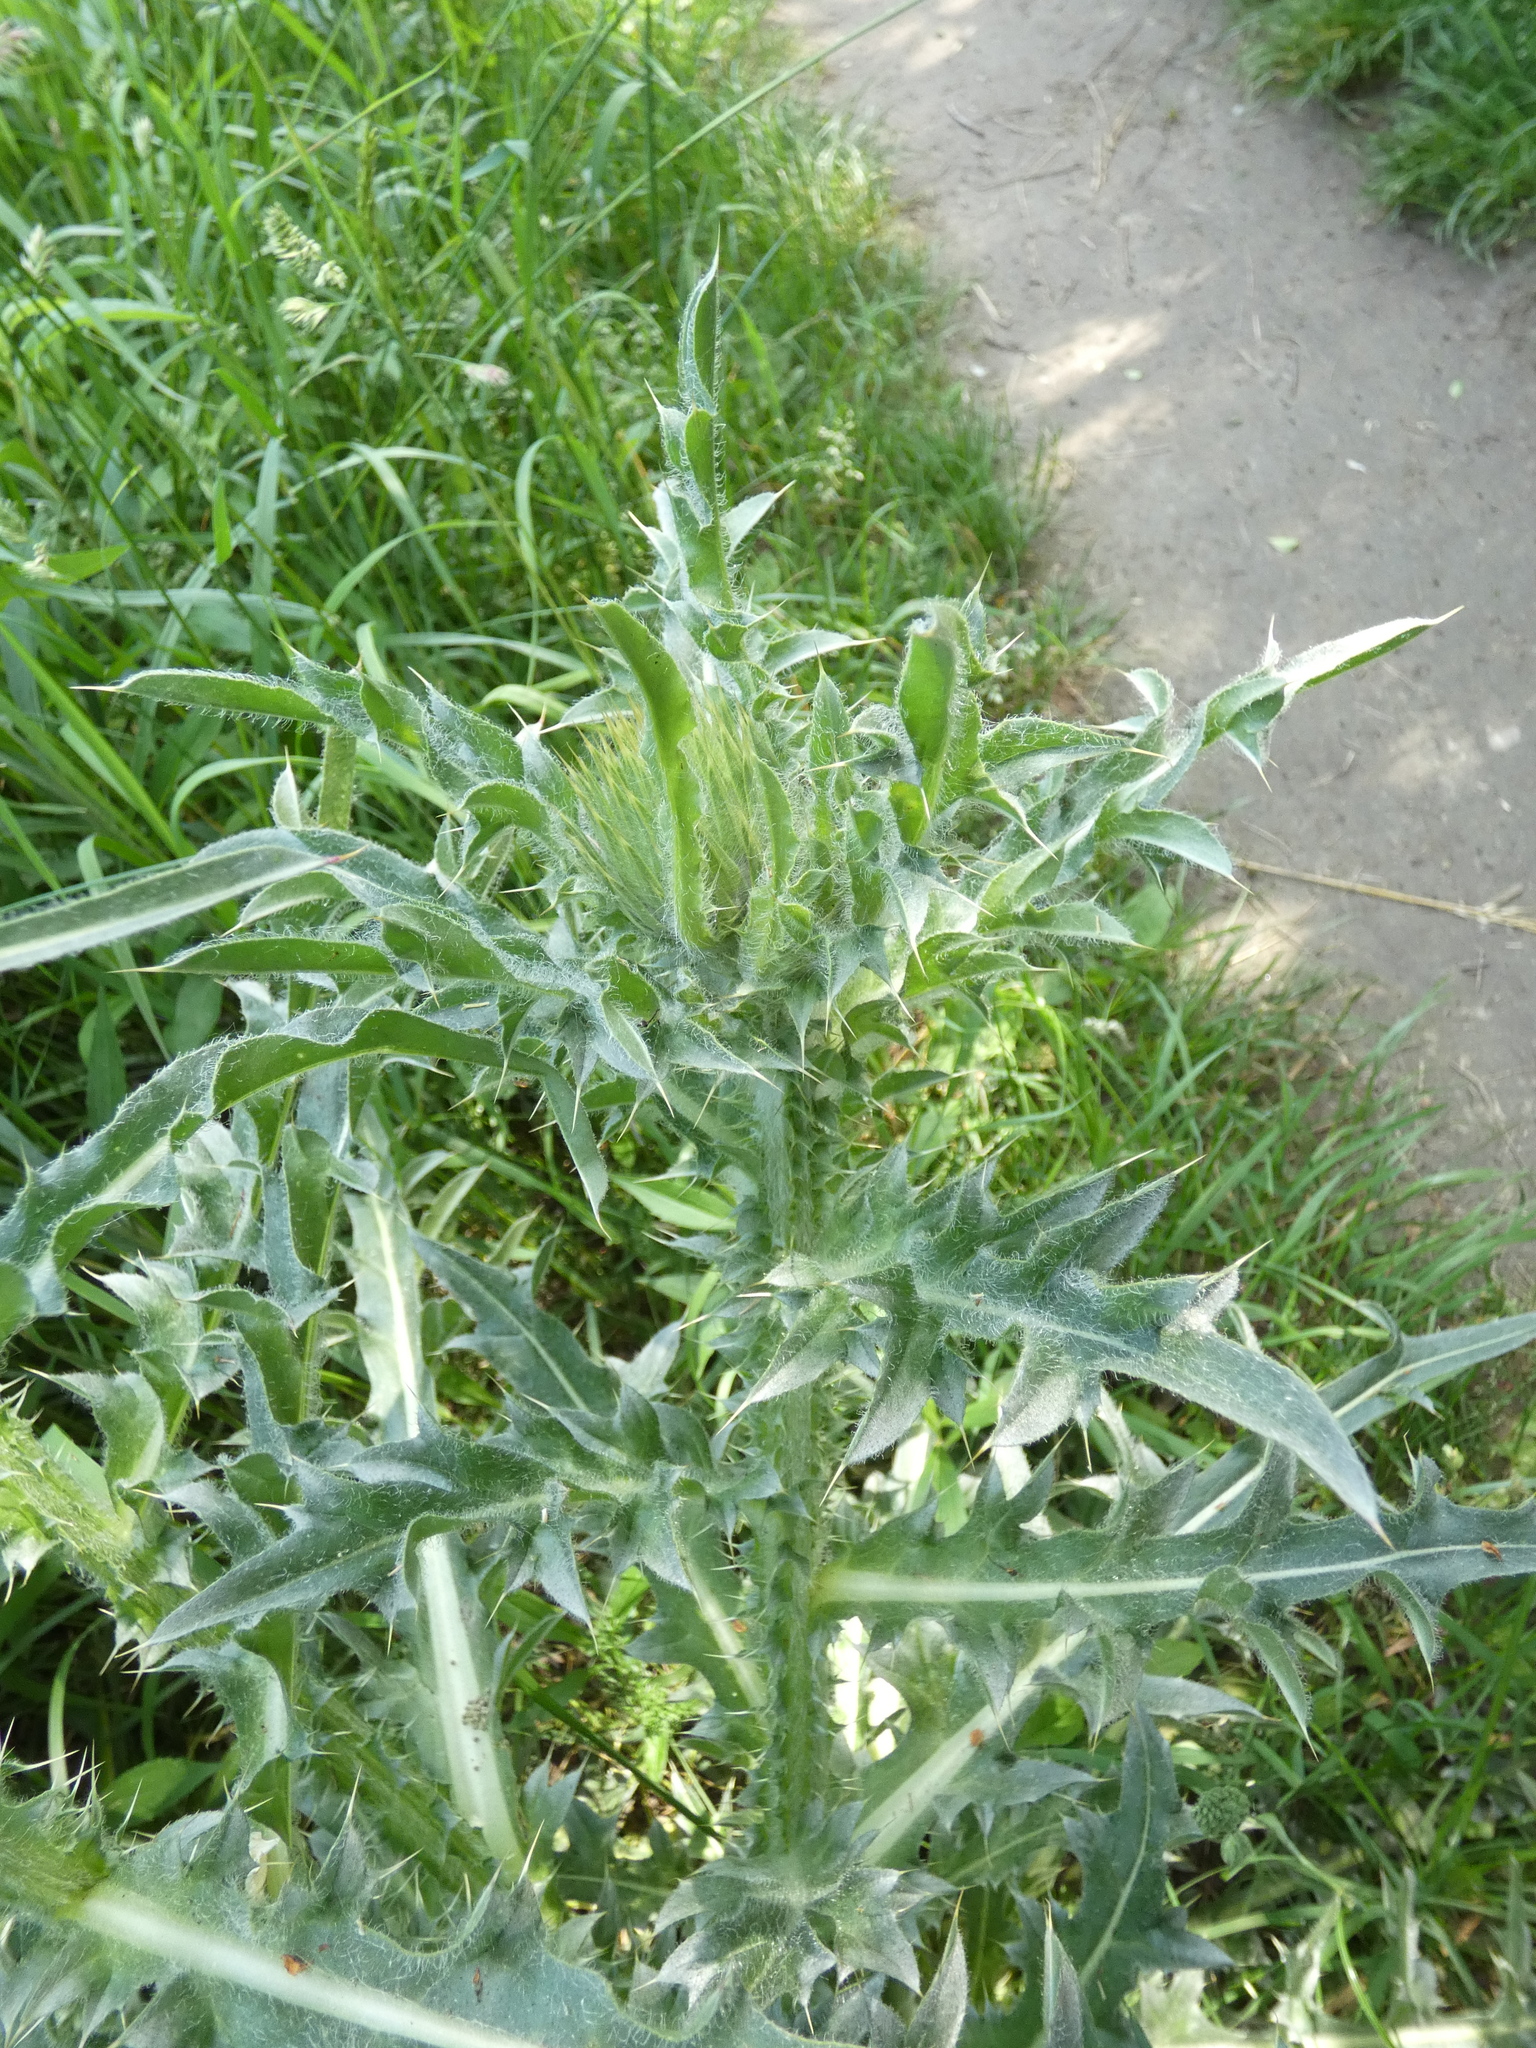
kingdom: Plantae
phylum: Tracheophyta
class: Magnoliopsida
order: Asterales
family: Asteraceae
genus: Carduus
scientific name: Carduus nutans
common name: Musk thistle
